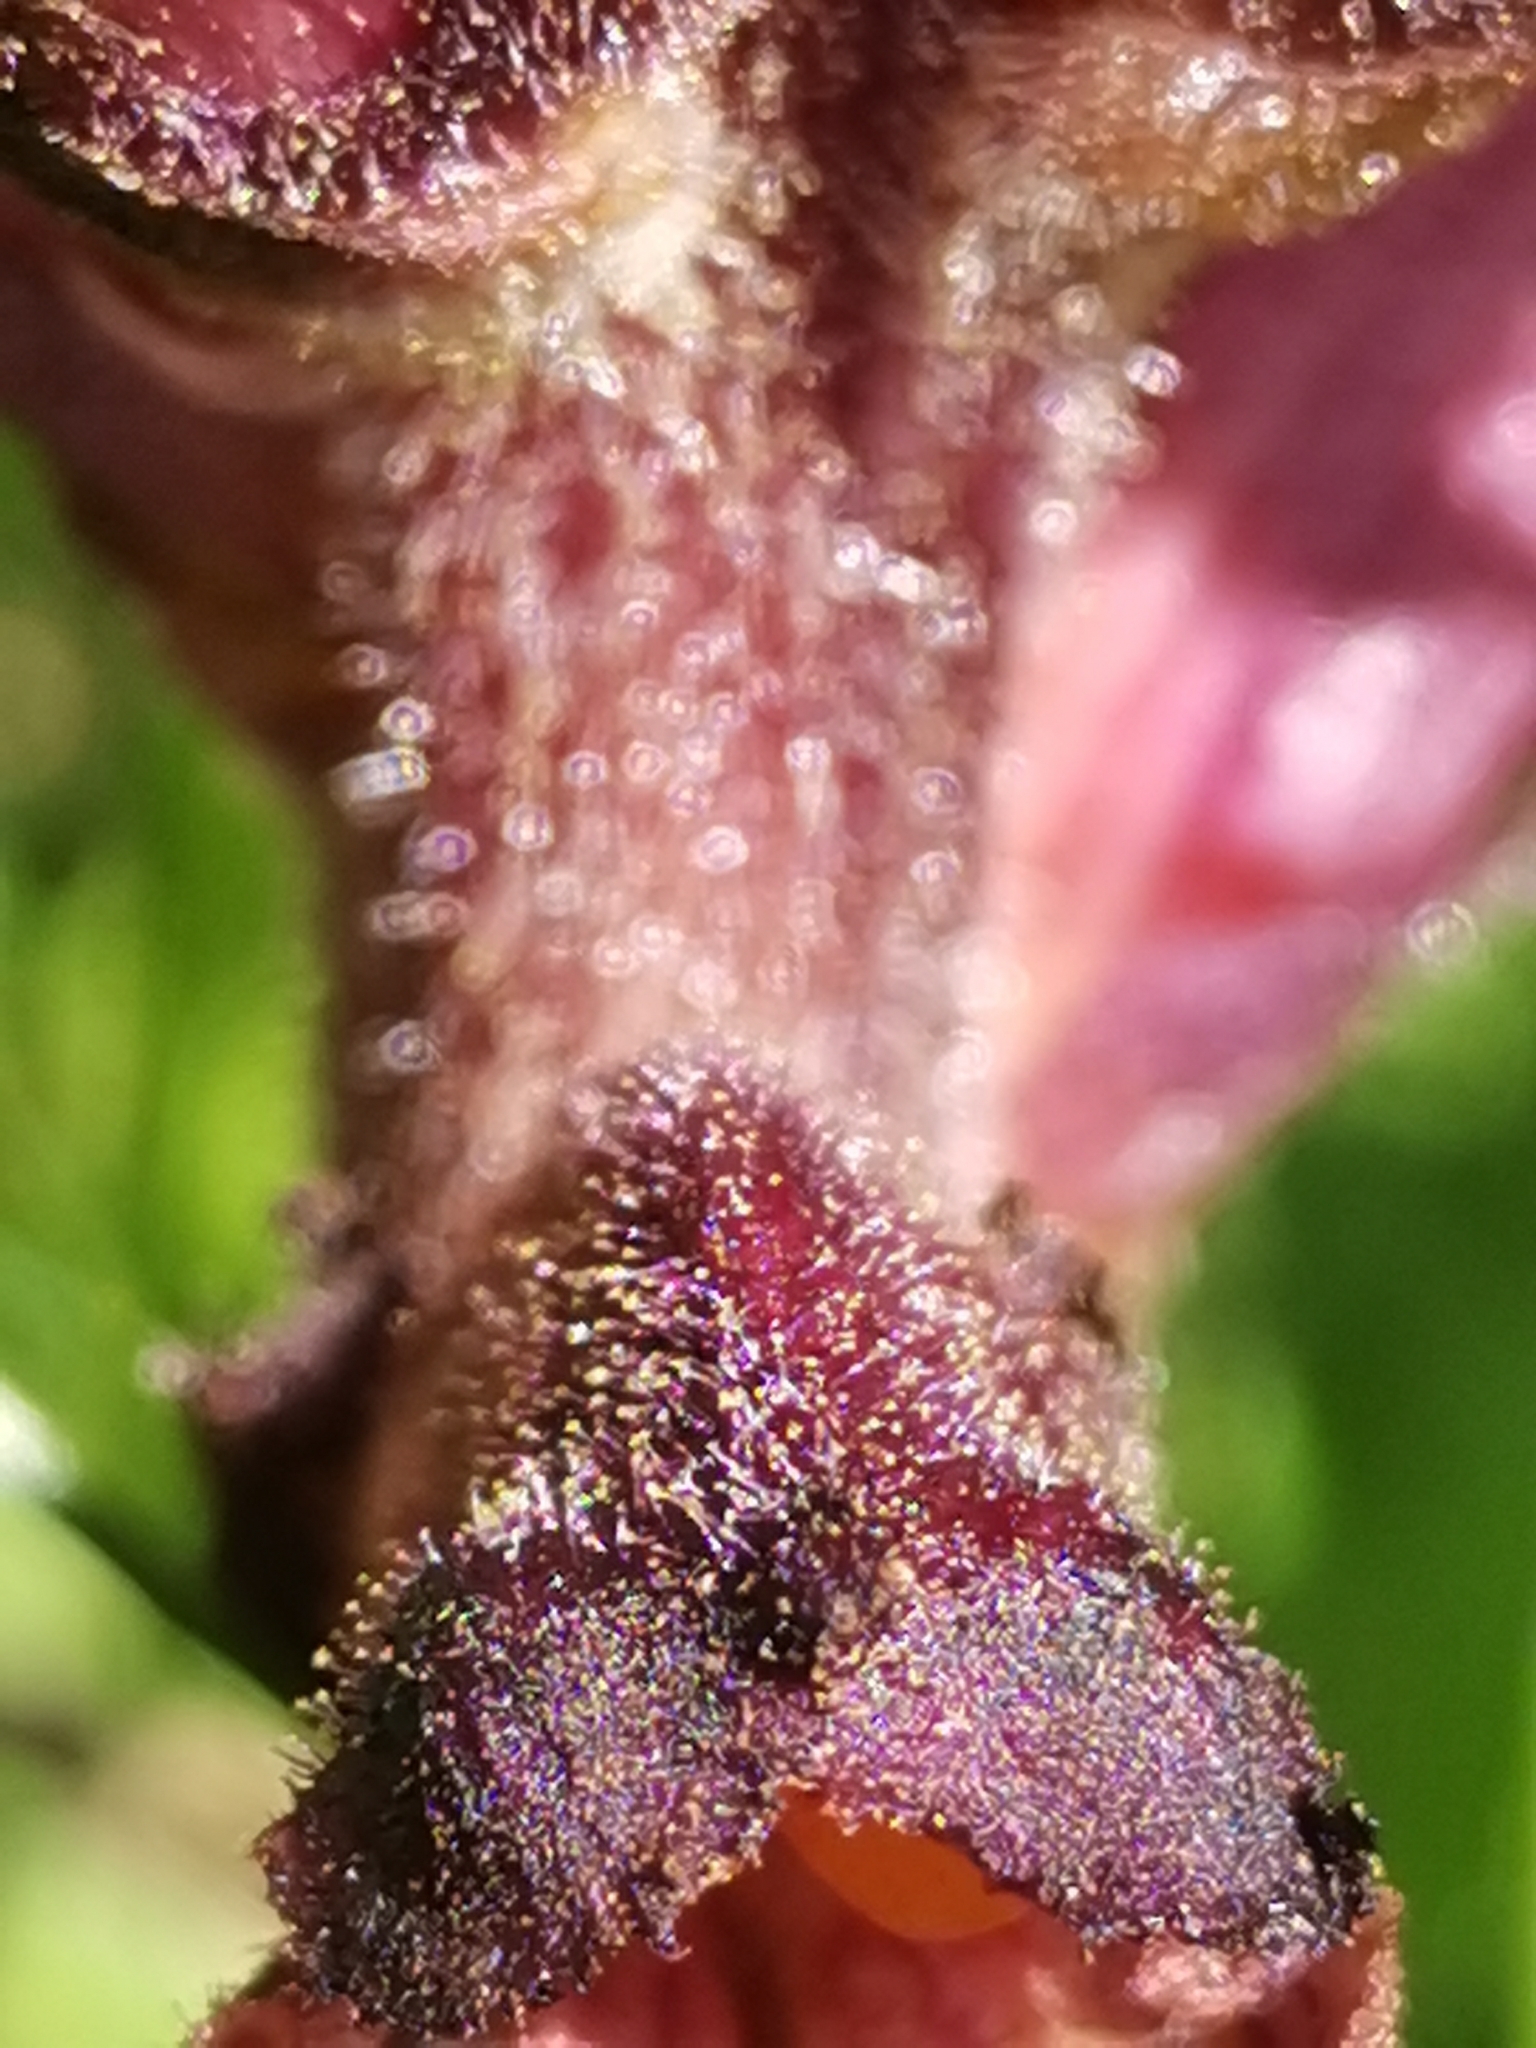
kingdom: Plantae
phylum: Tracheophyta
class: Magnoliopsida
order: Lamiales
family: Orobanchaceae
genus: Orobanche
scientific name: Orobanche pancicii
